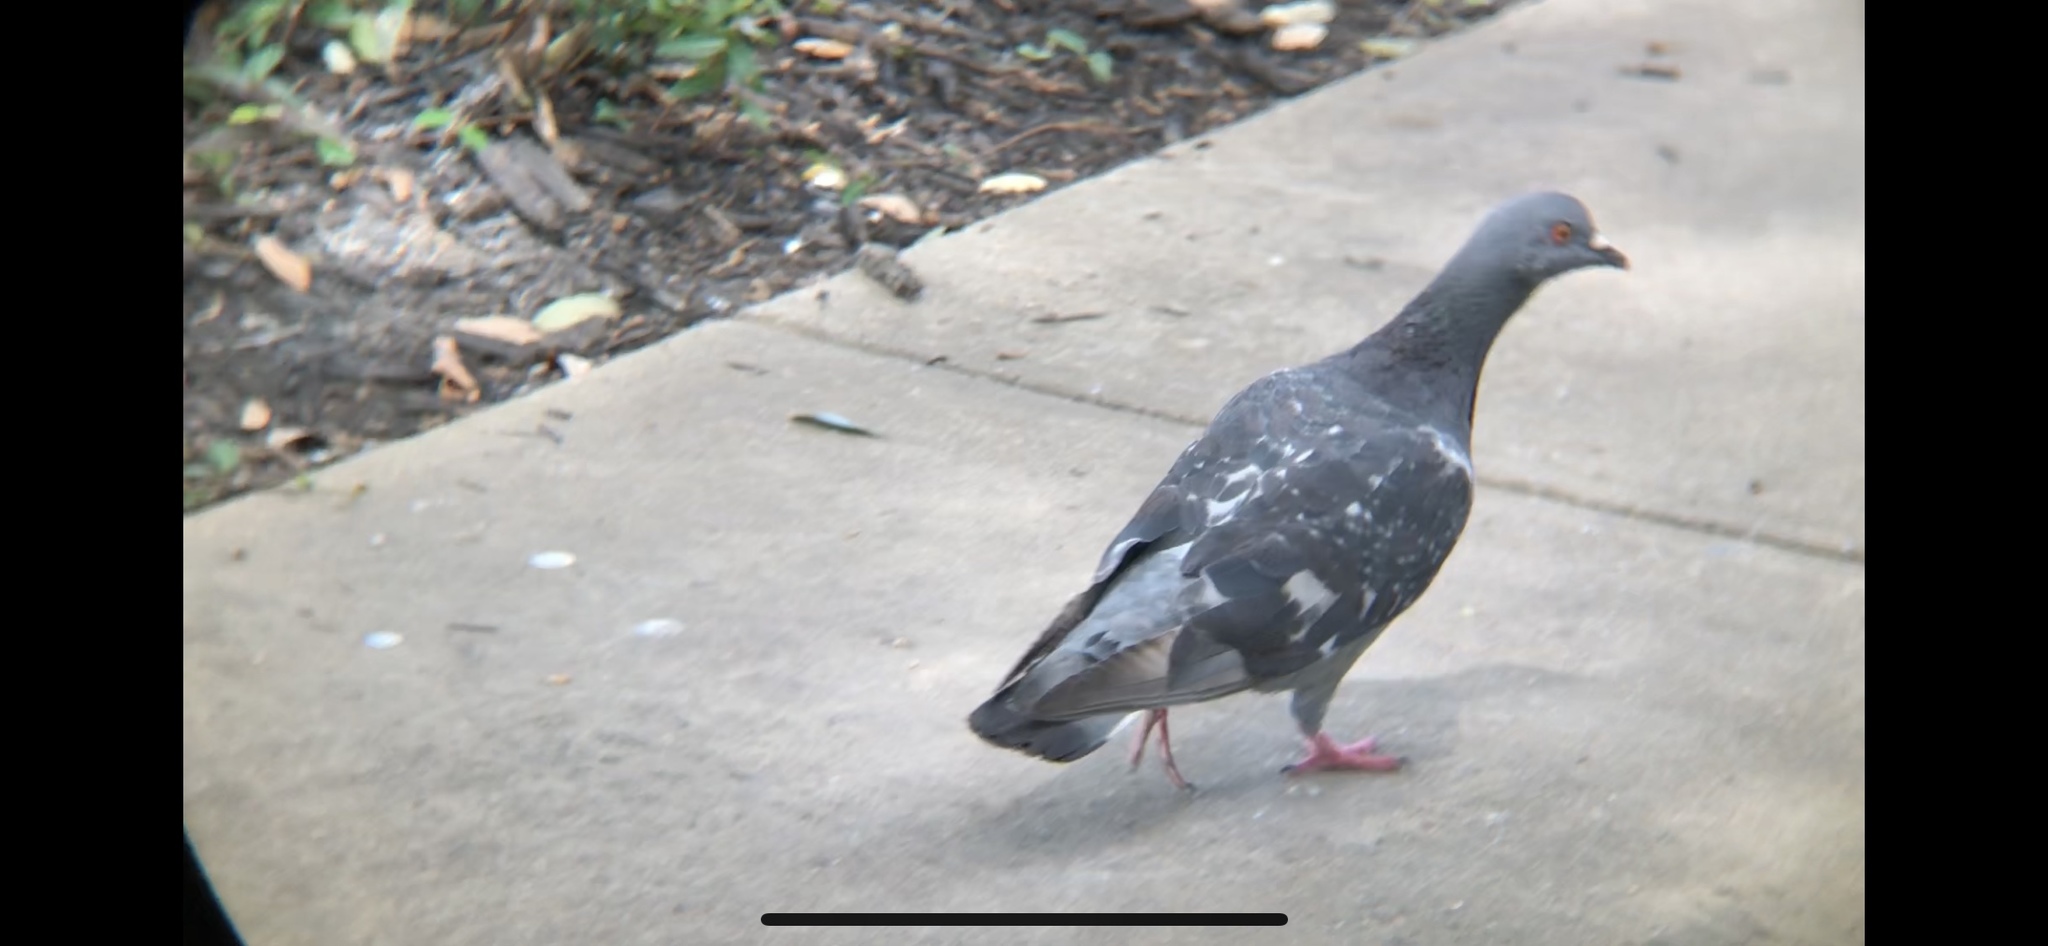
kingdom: Animalia
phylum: Chordata
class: Aves
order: Columbiformes
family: Columbidae
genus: Columba
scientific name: Columba livia
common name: Rock pigeon
